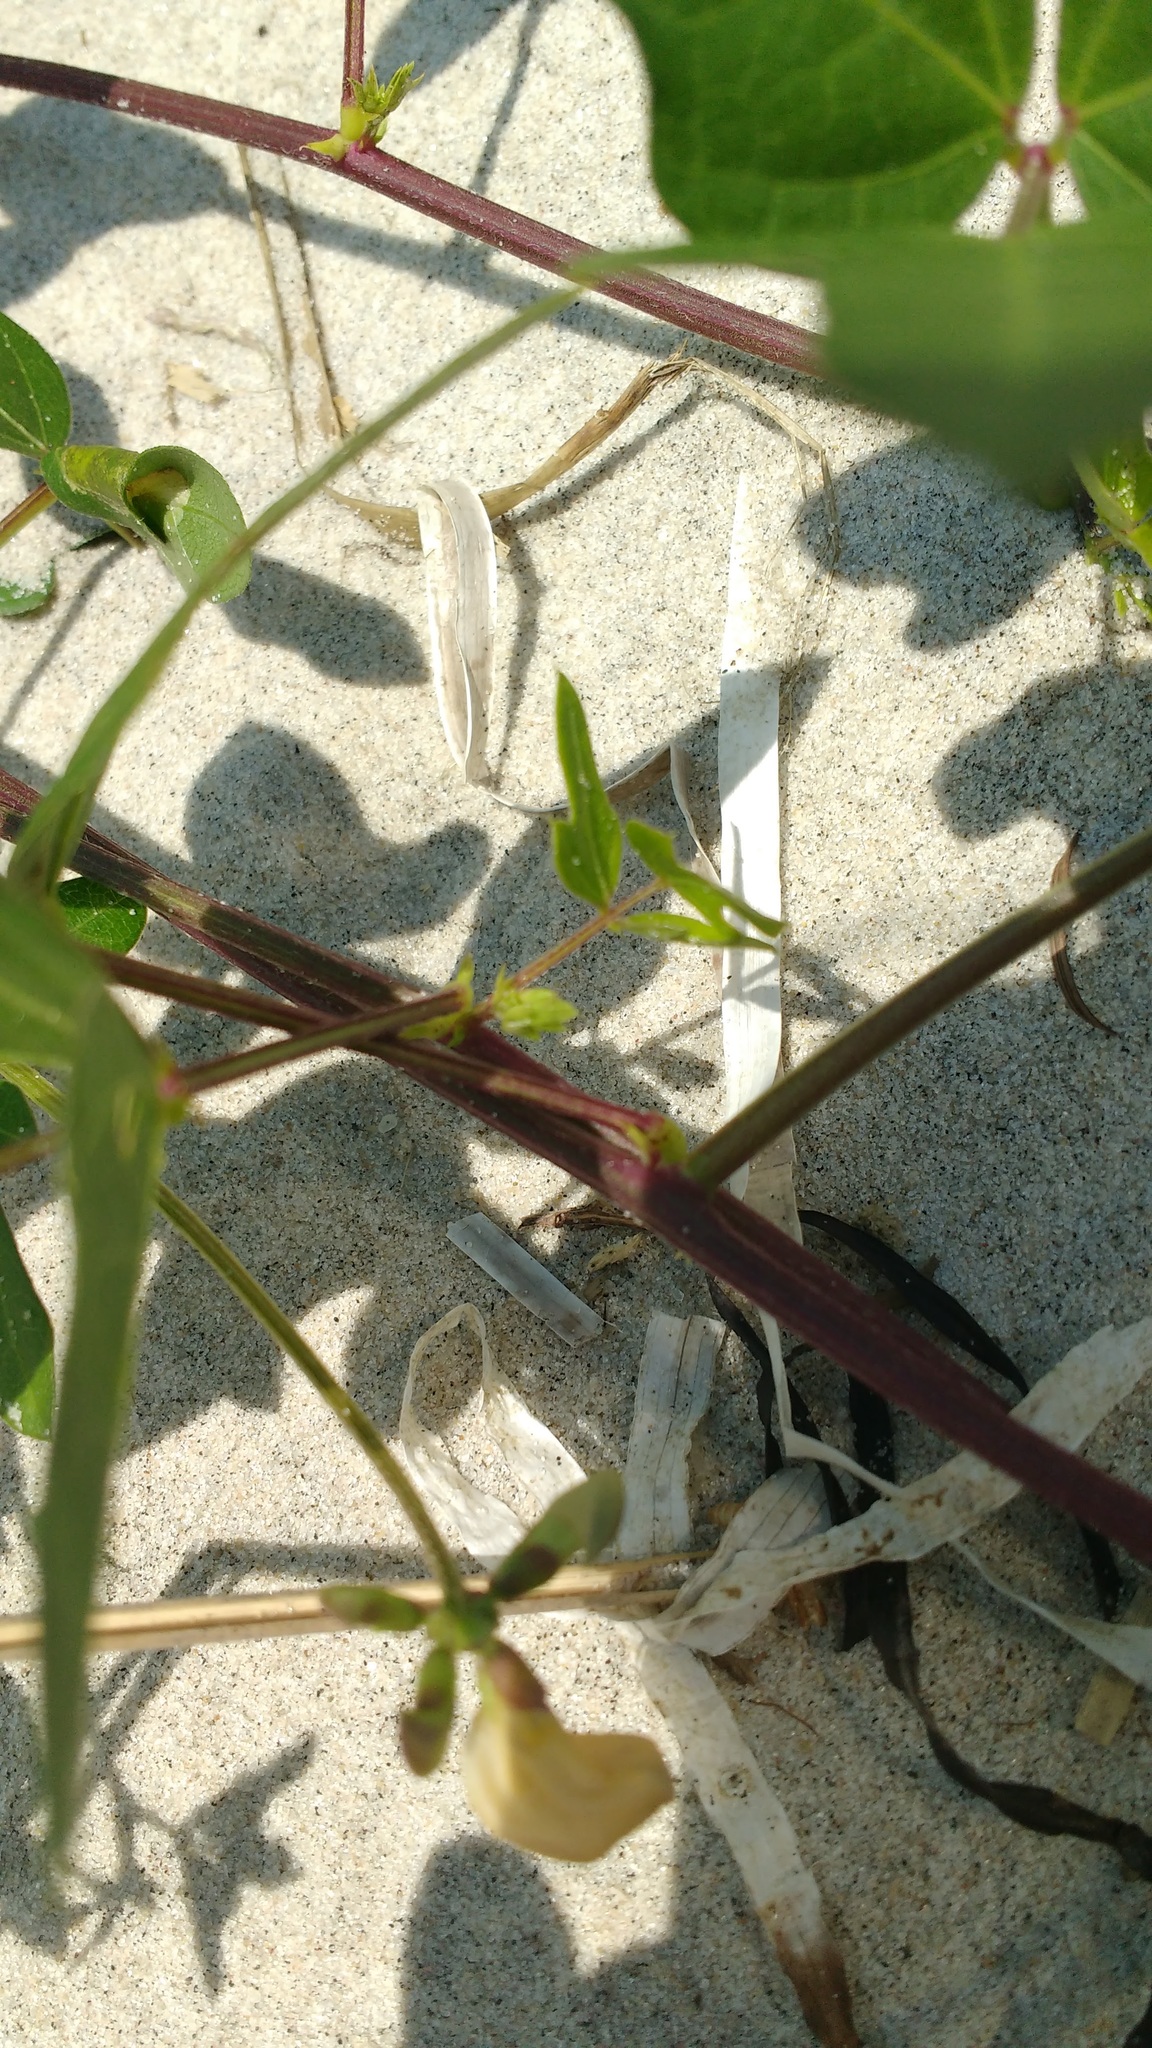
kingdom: Plantae
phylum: Tracheophyta
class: Magnoliopsida
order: Fabales
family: Fabaceae
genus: Strophostyles
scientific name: Strophostyles helvola
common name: Trailing wild bean
